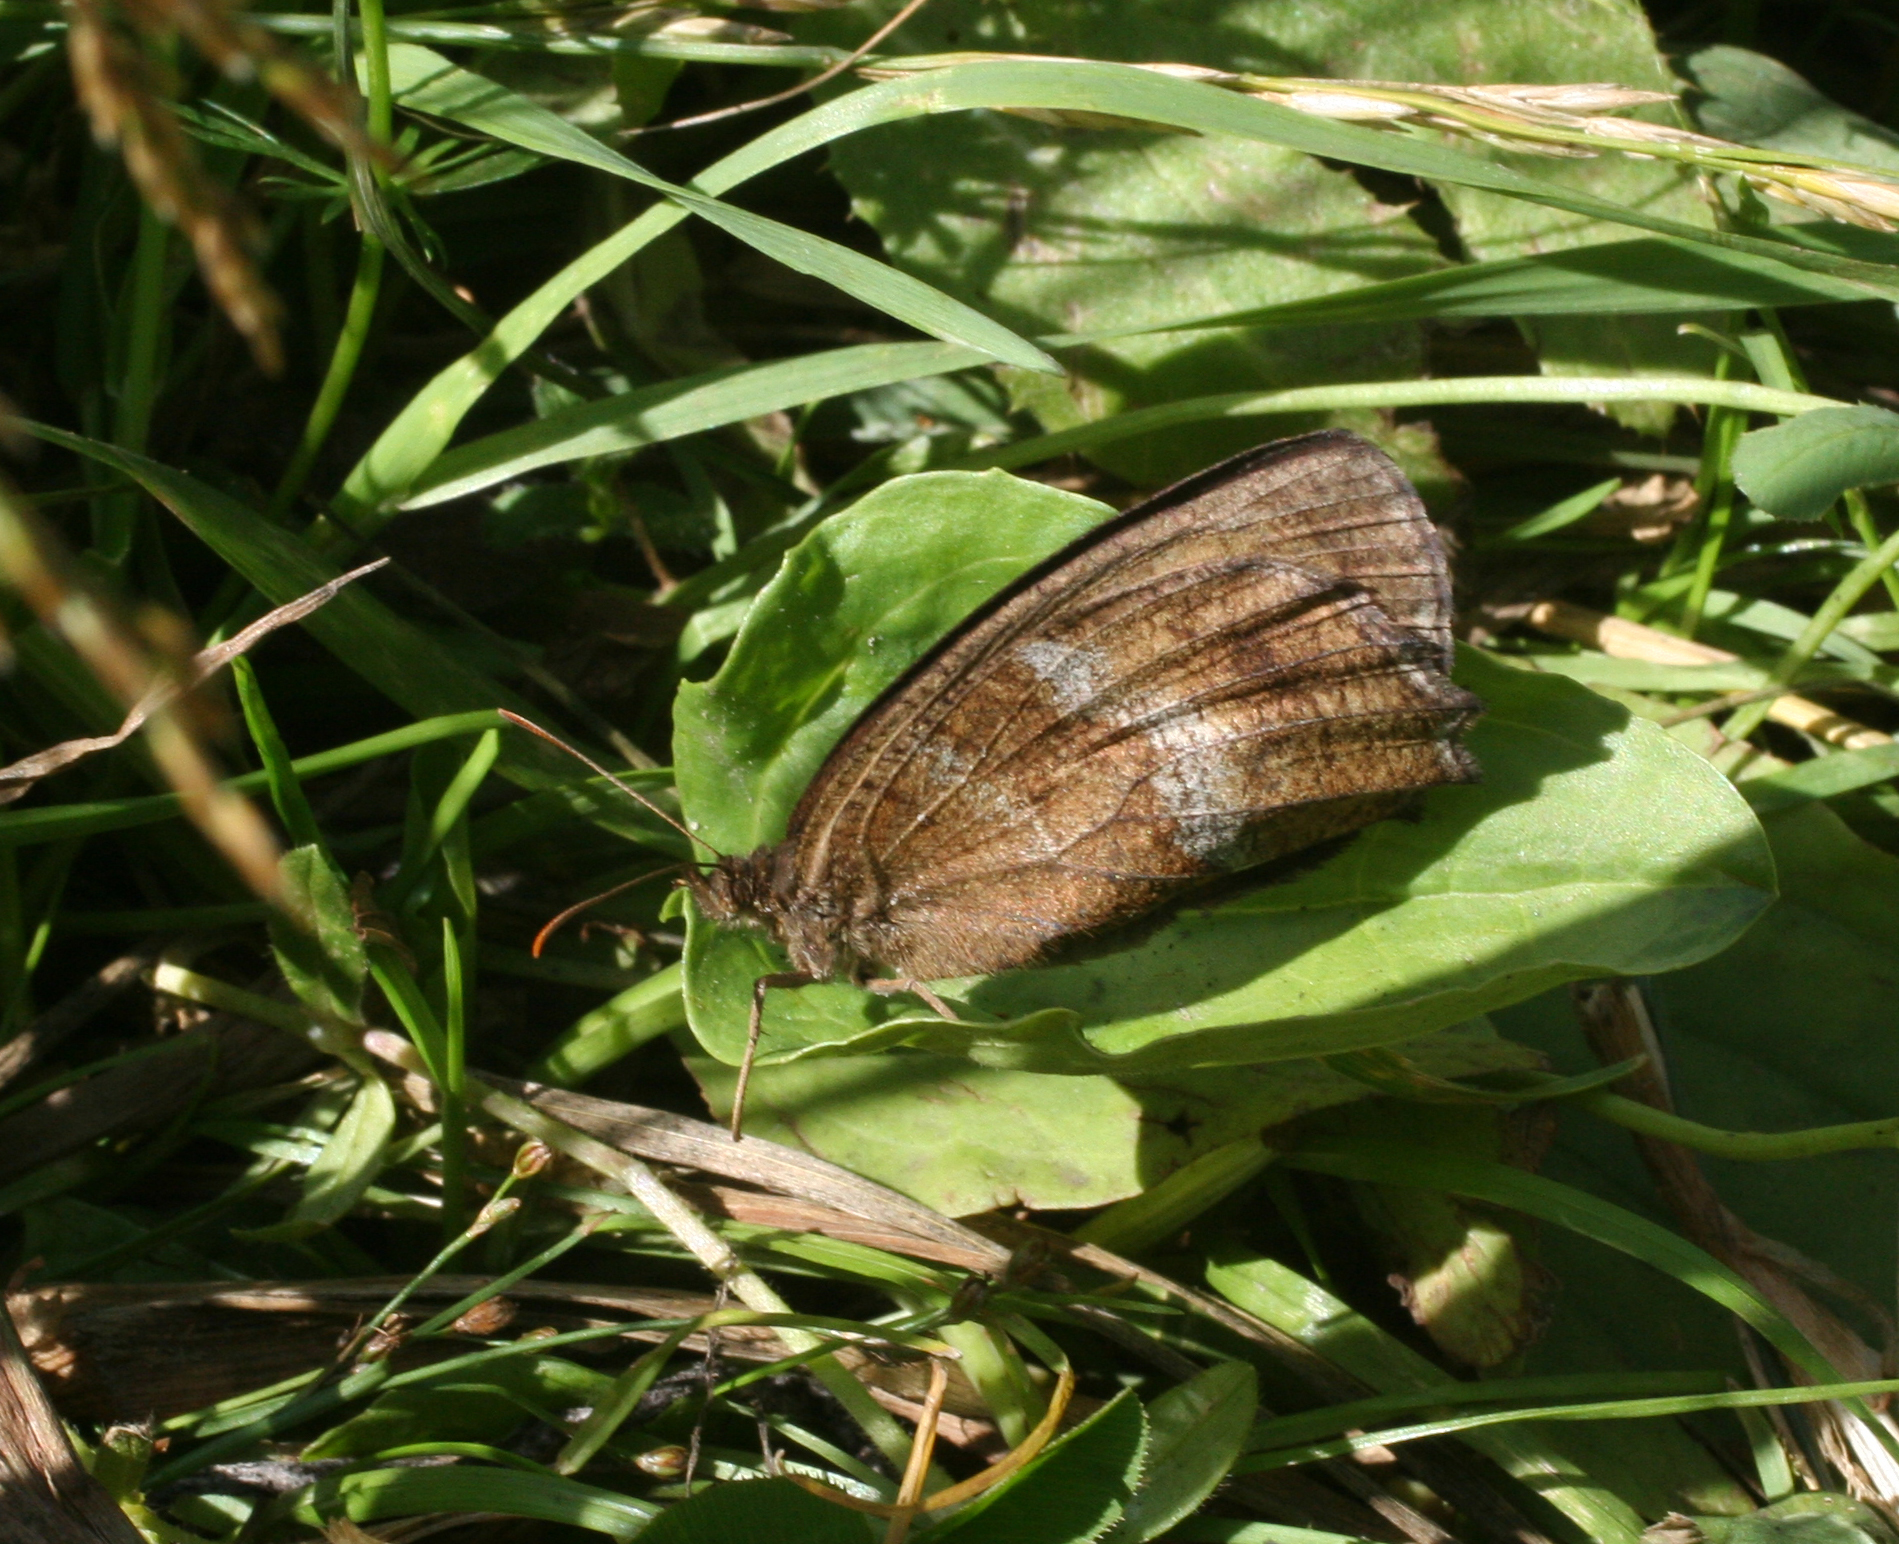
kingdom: Animalia
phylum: Arthropoda
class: Insecta
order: Lepidoptera
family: Nymphalidae
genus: Minois
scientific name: Minois dryas
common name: Dryad
